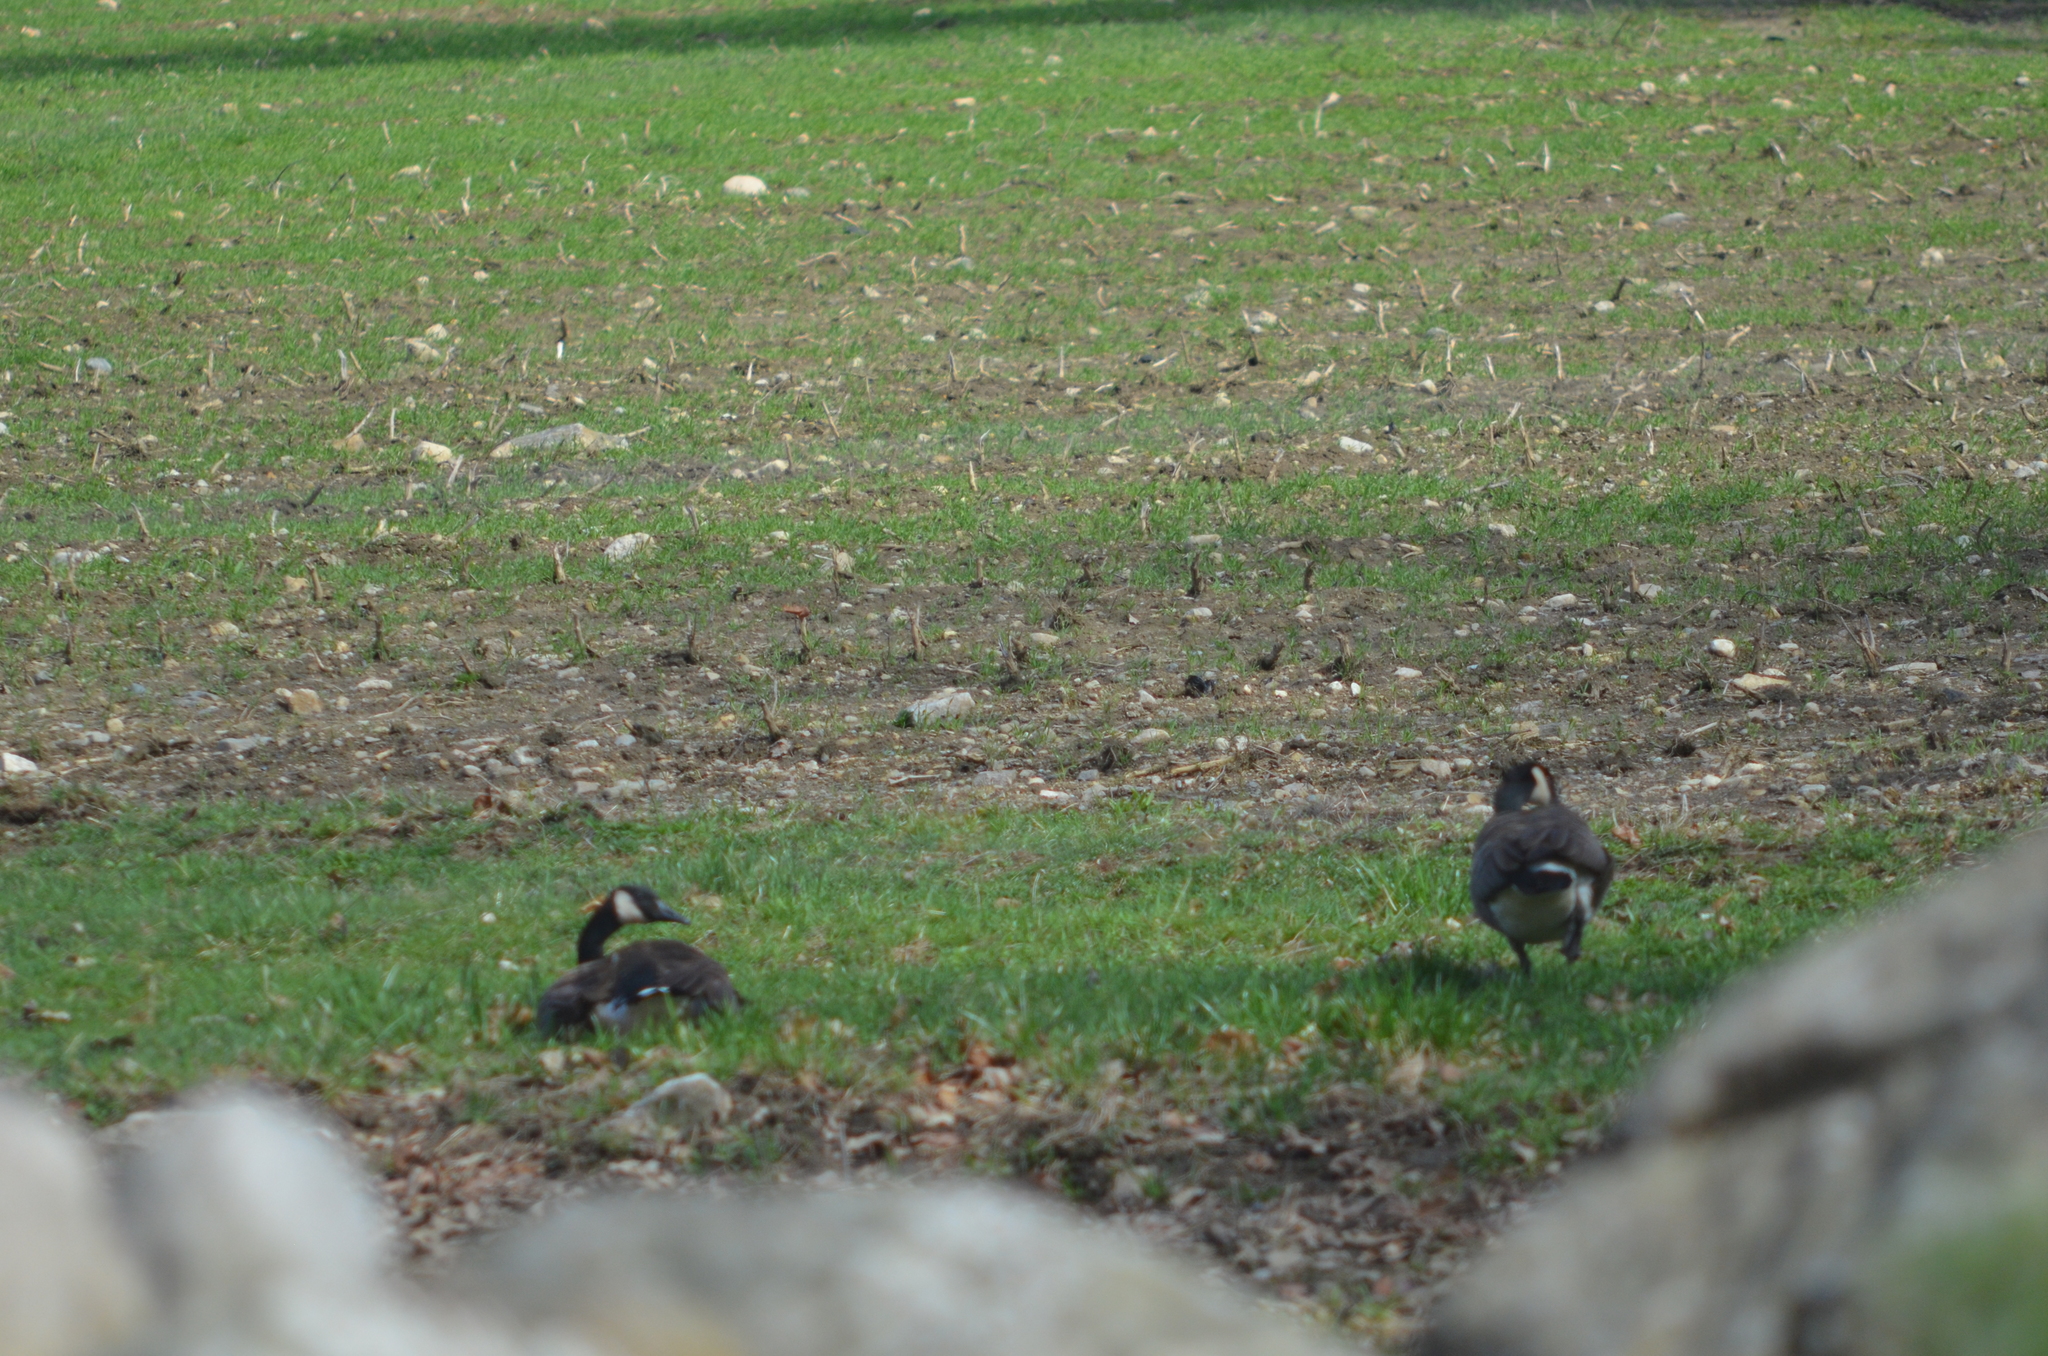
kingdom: Animalia
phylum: Chordata
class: Aves
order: Anseriformes
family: Anatidae
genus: Branta
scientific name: Branta canadensis
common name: Canada goose
